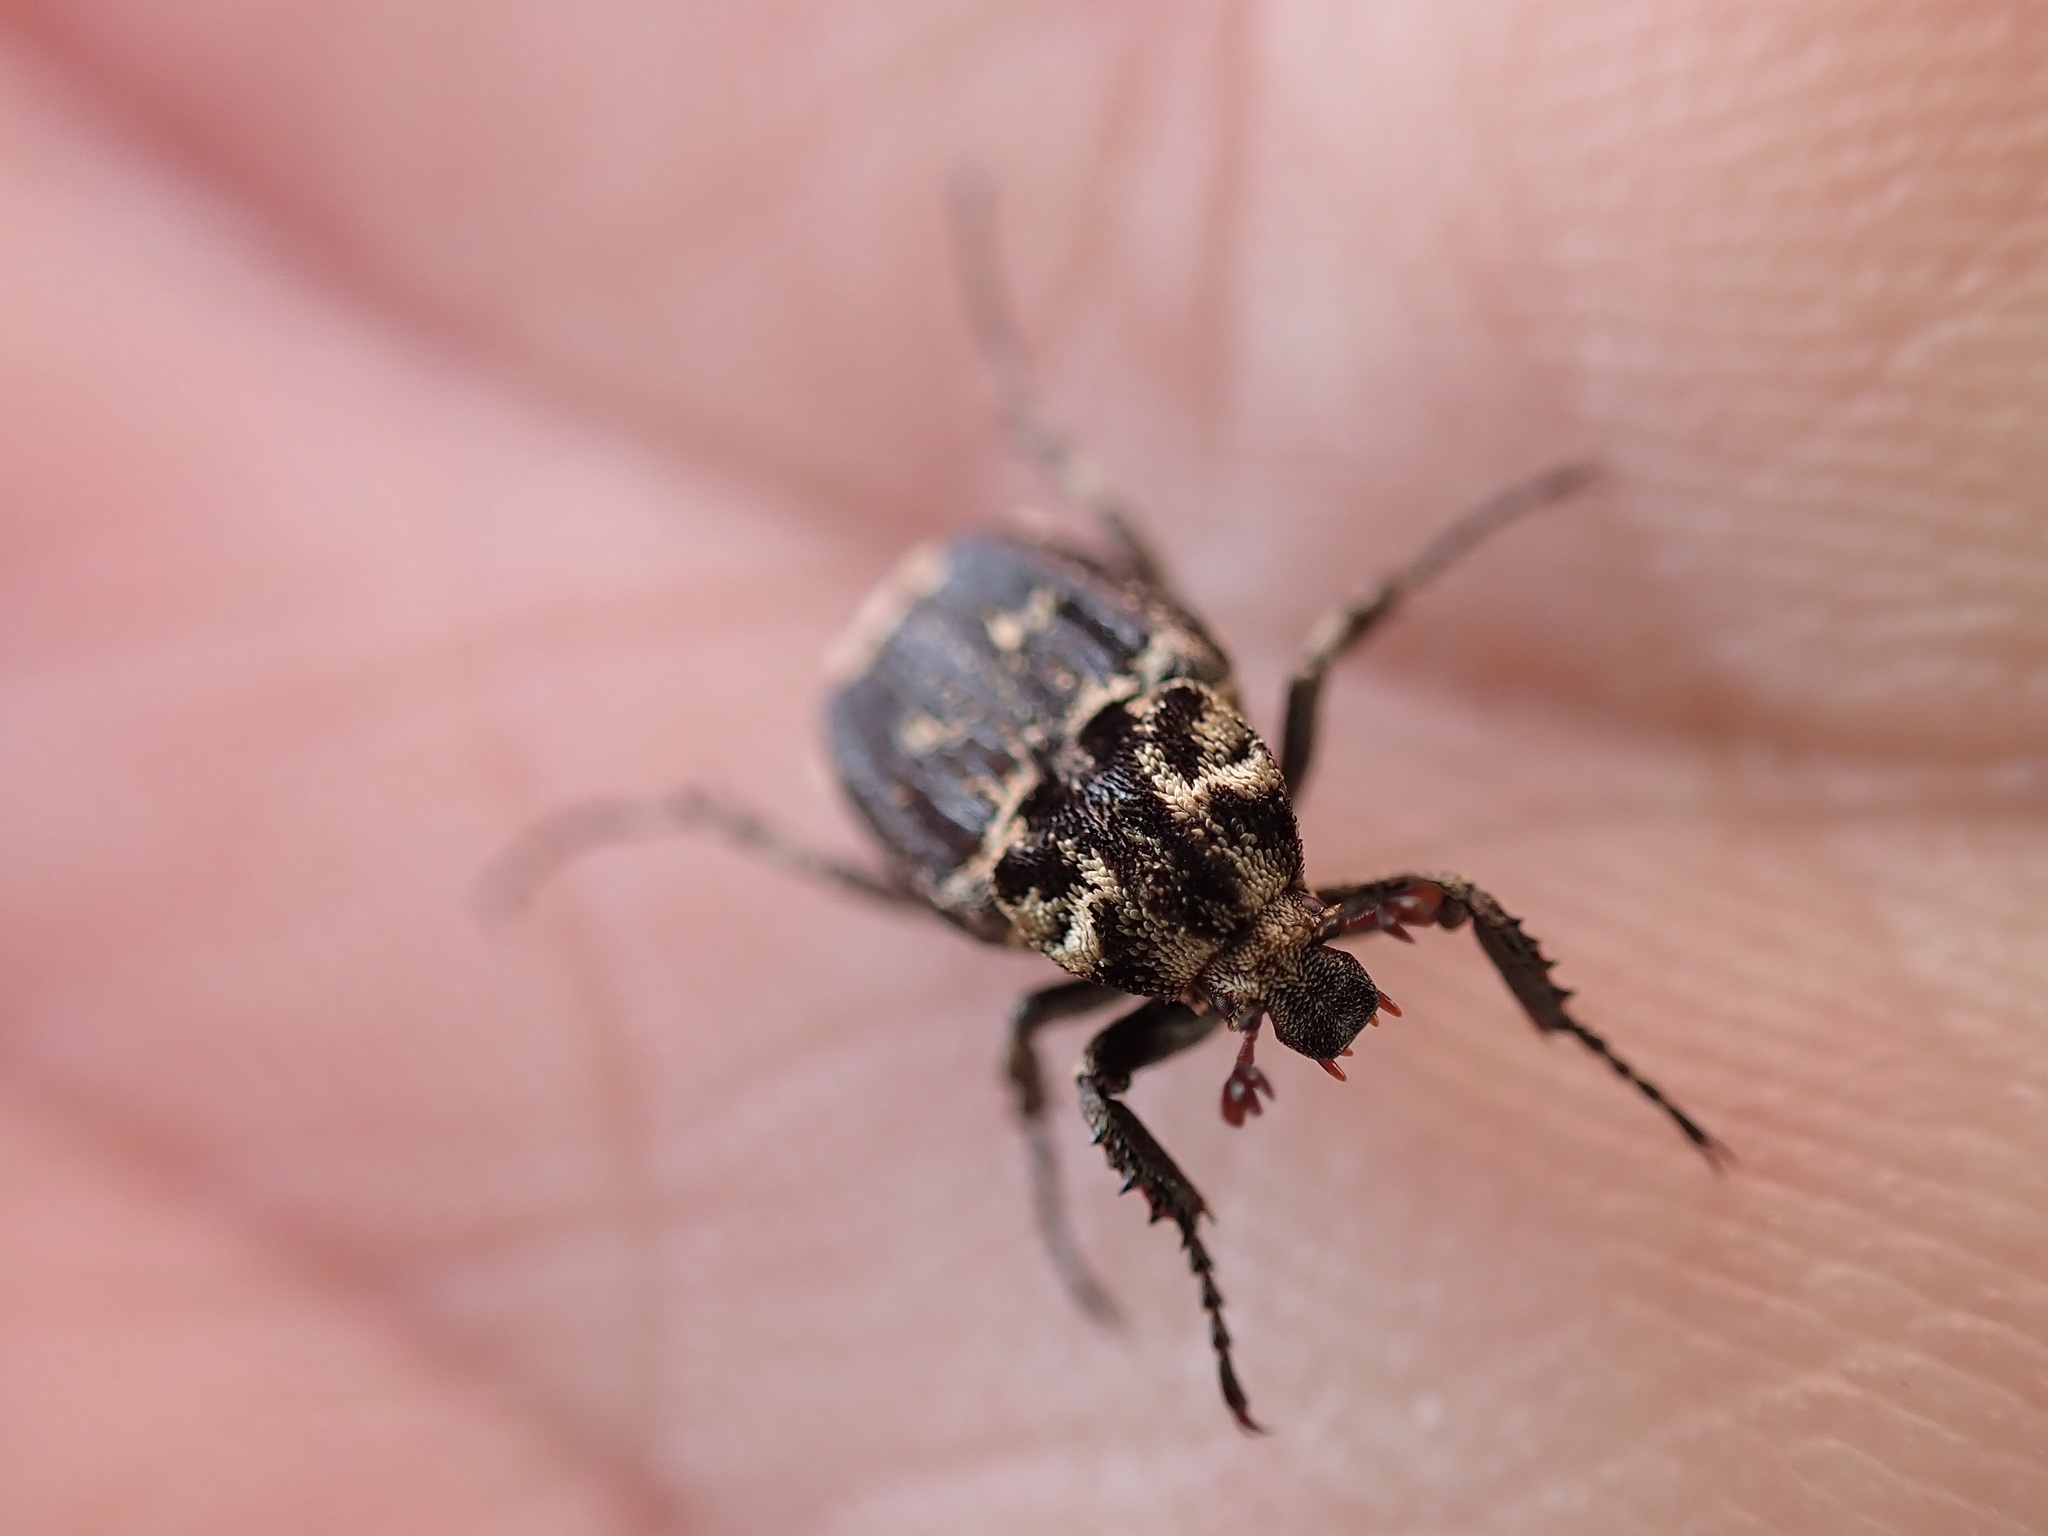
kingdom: Animalia
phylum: Arthropoda
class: Insecta
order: Coleoptera
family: Scarabaeidae
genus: Valgus
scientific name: Valgus hemipterus
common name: Bug flower chafer
